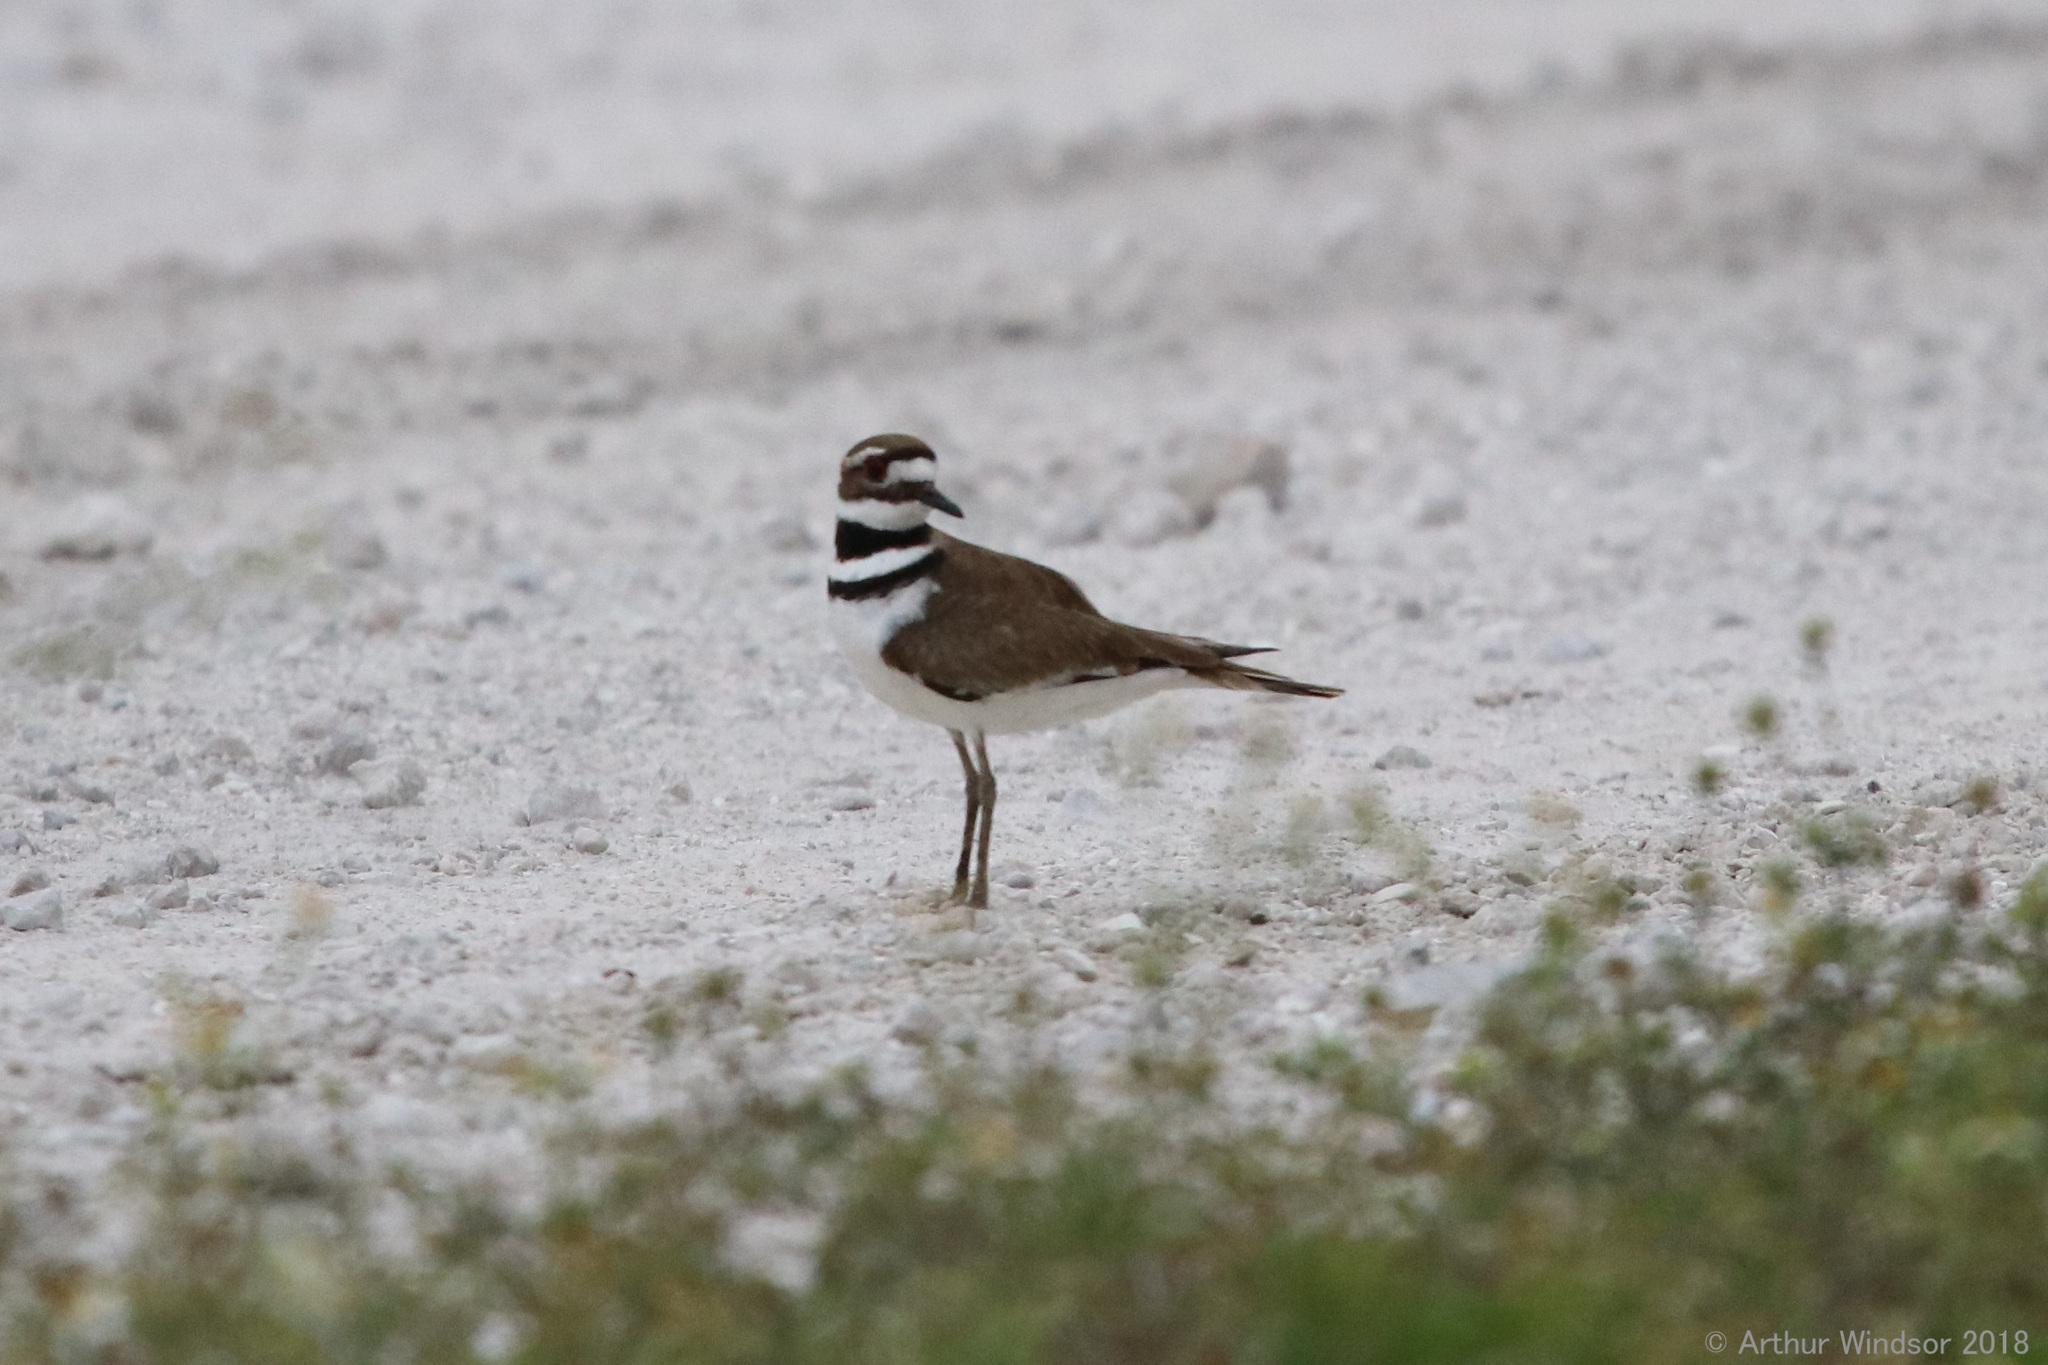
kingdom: Animalia
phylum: Chordata
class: Aves
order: Charadriiformes
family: Charadriidae
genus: Charadrius
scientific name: Charadrius vociferus
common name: Killdeer
